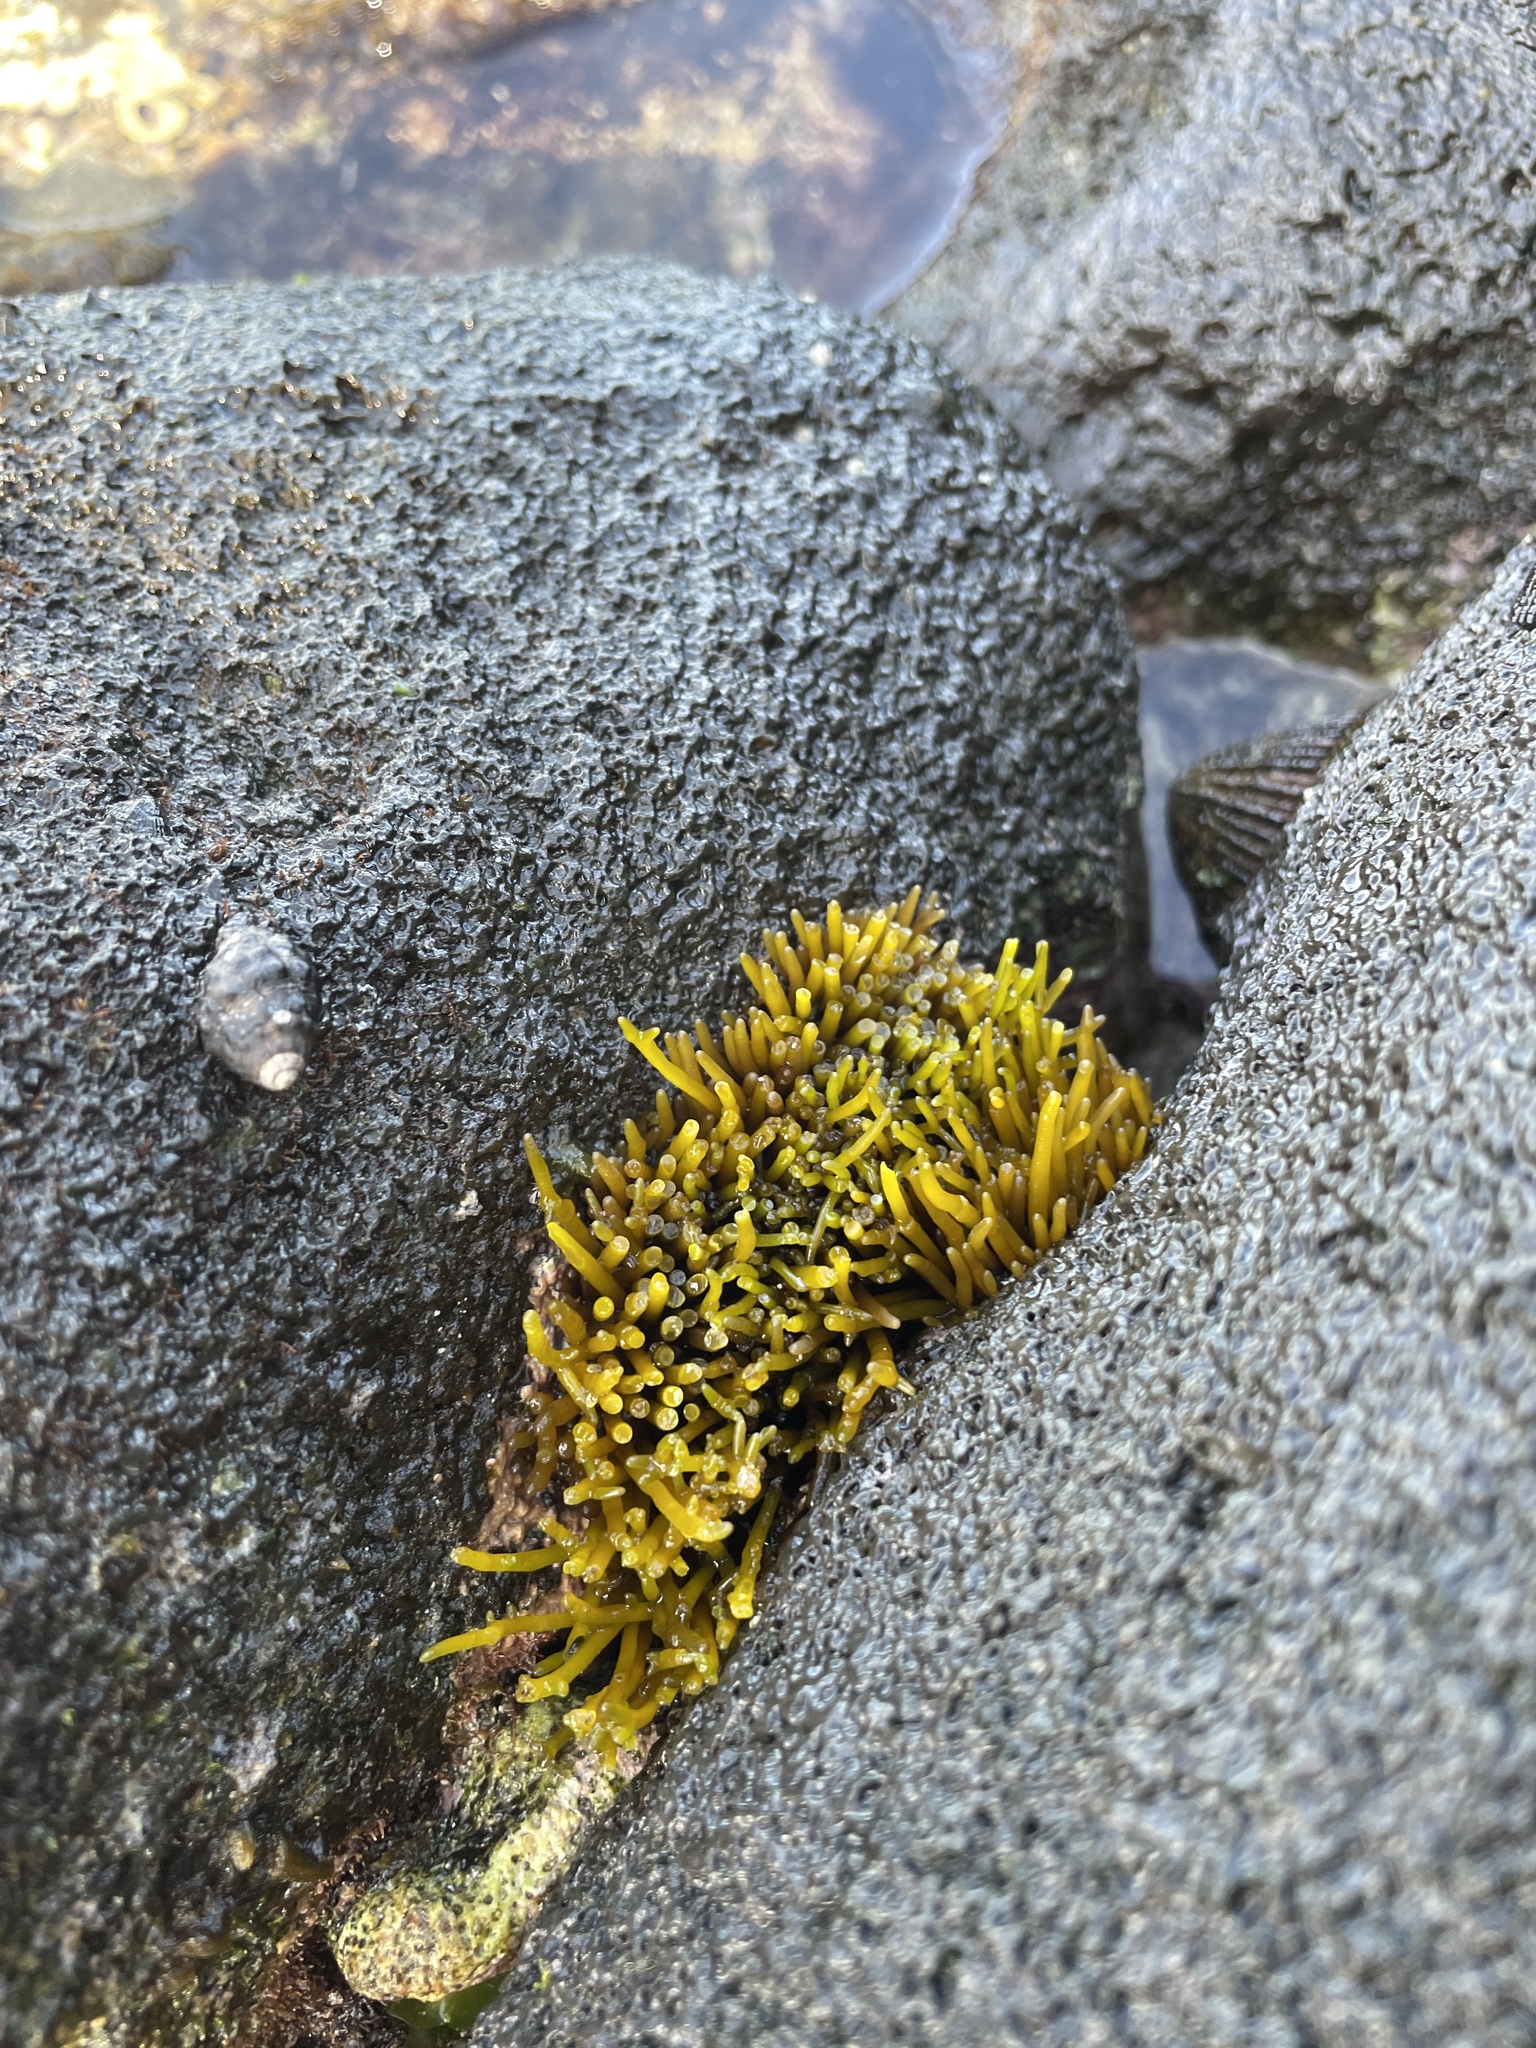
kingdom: Plantae
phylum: Rhodophyta
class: Florideophyceae
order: Gigartinales
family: Phyllophoraceae
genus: Gymnogongrus
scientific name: Gymnogongrus durvillei
